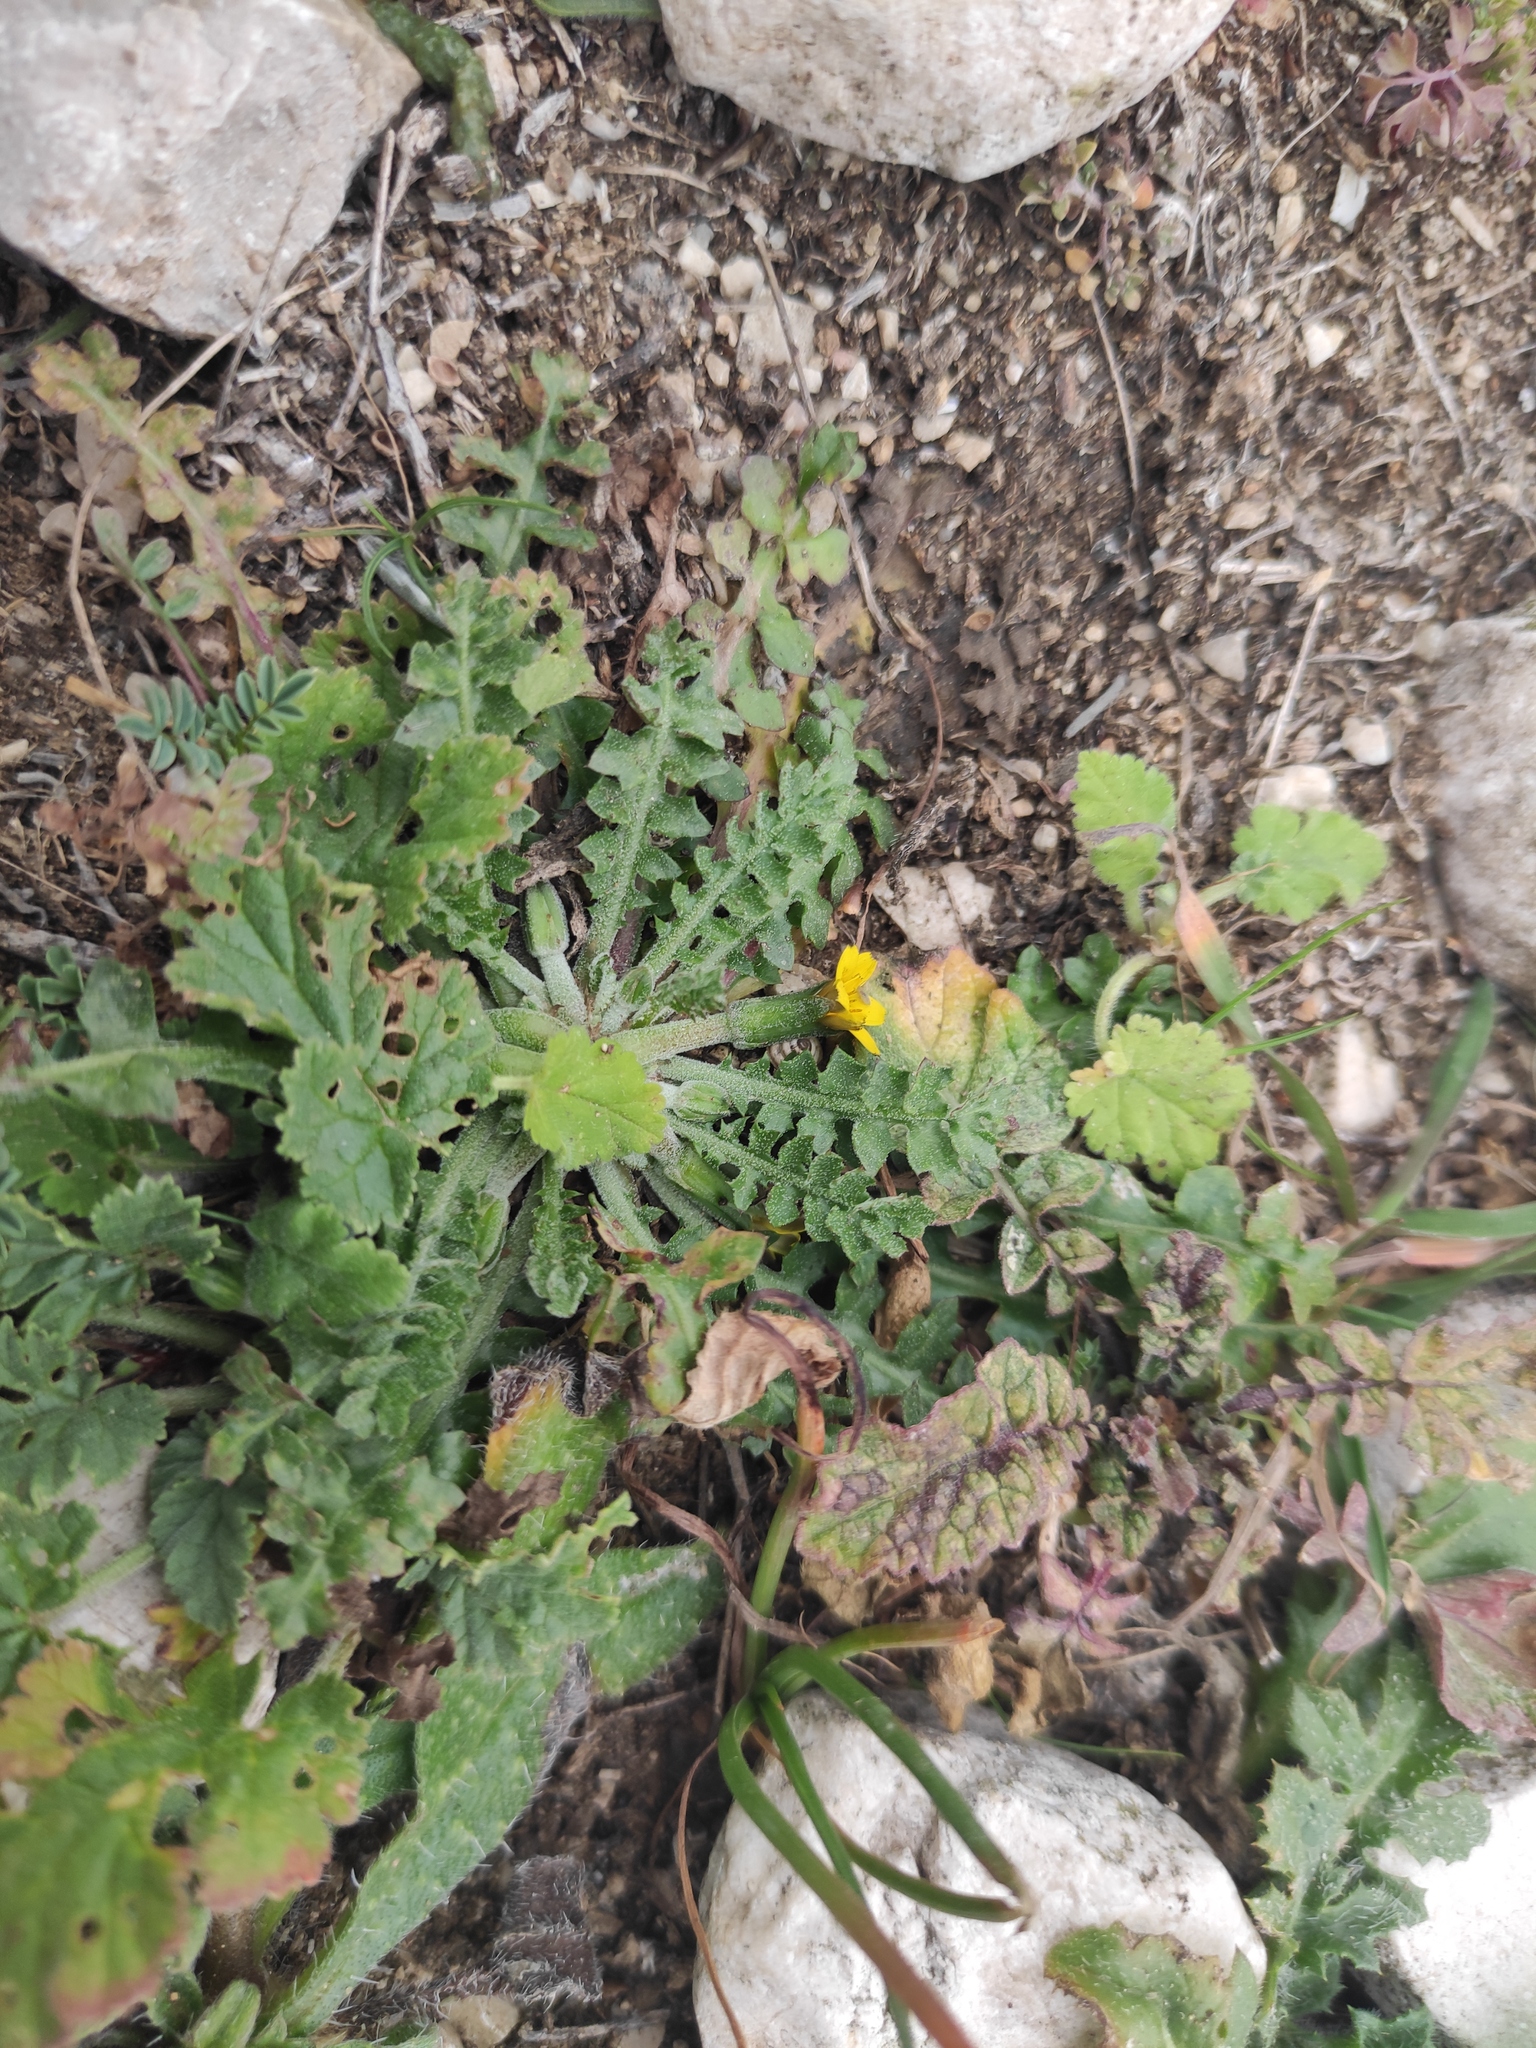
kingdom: Plantae
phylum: Tracheophyta
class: Magnoliopsida
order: Asterales
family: Asteraceae
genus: Hyoseris
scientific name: Hyoseris scabra
